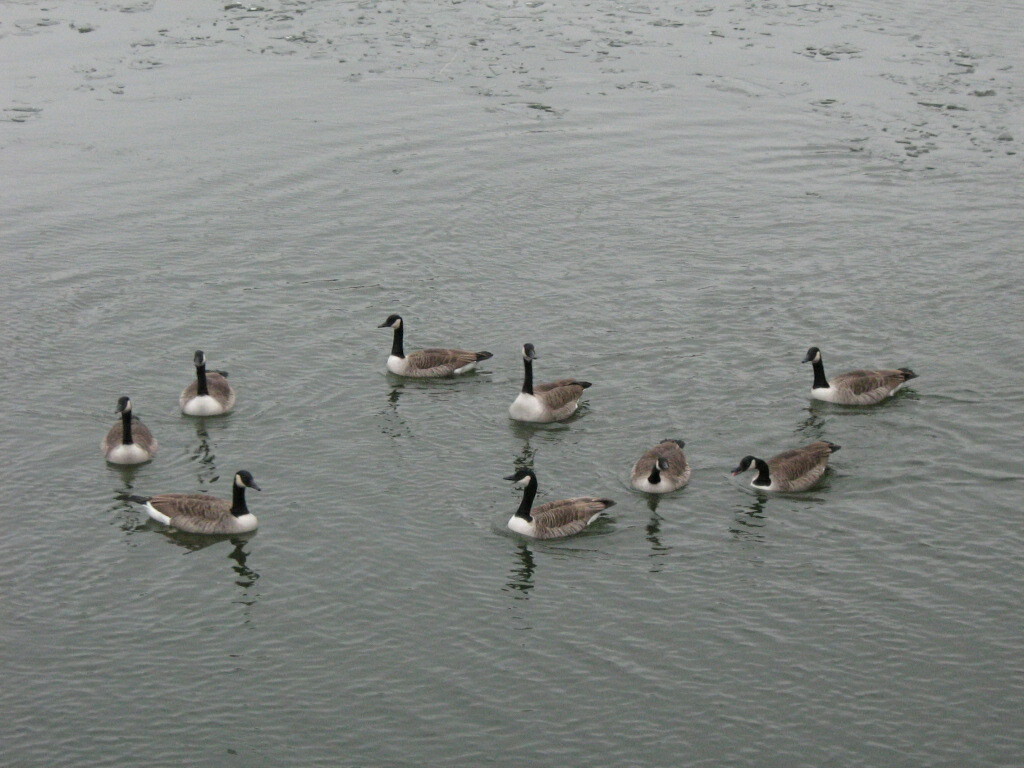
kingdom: Animalia
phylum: Chordata
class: Aves
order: Anseriformes
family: Anatidae
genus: Branta
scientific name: Branta canadensis
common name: Canada goose
